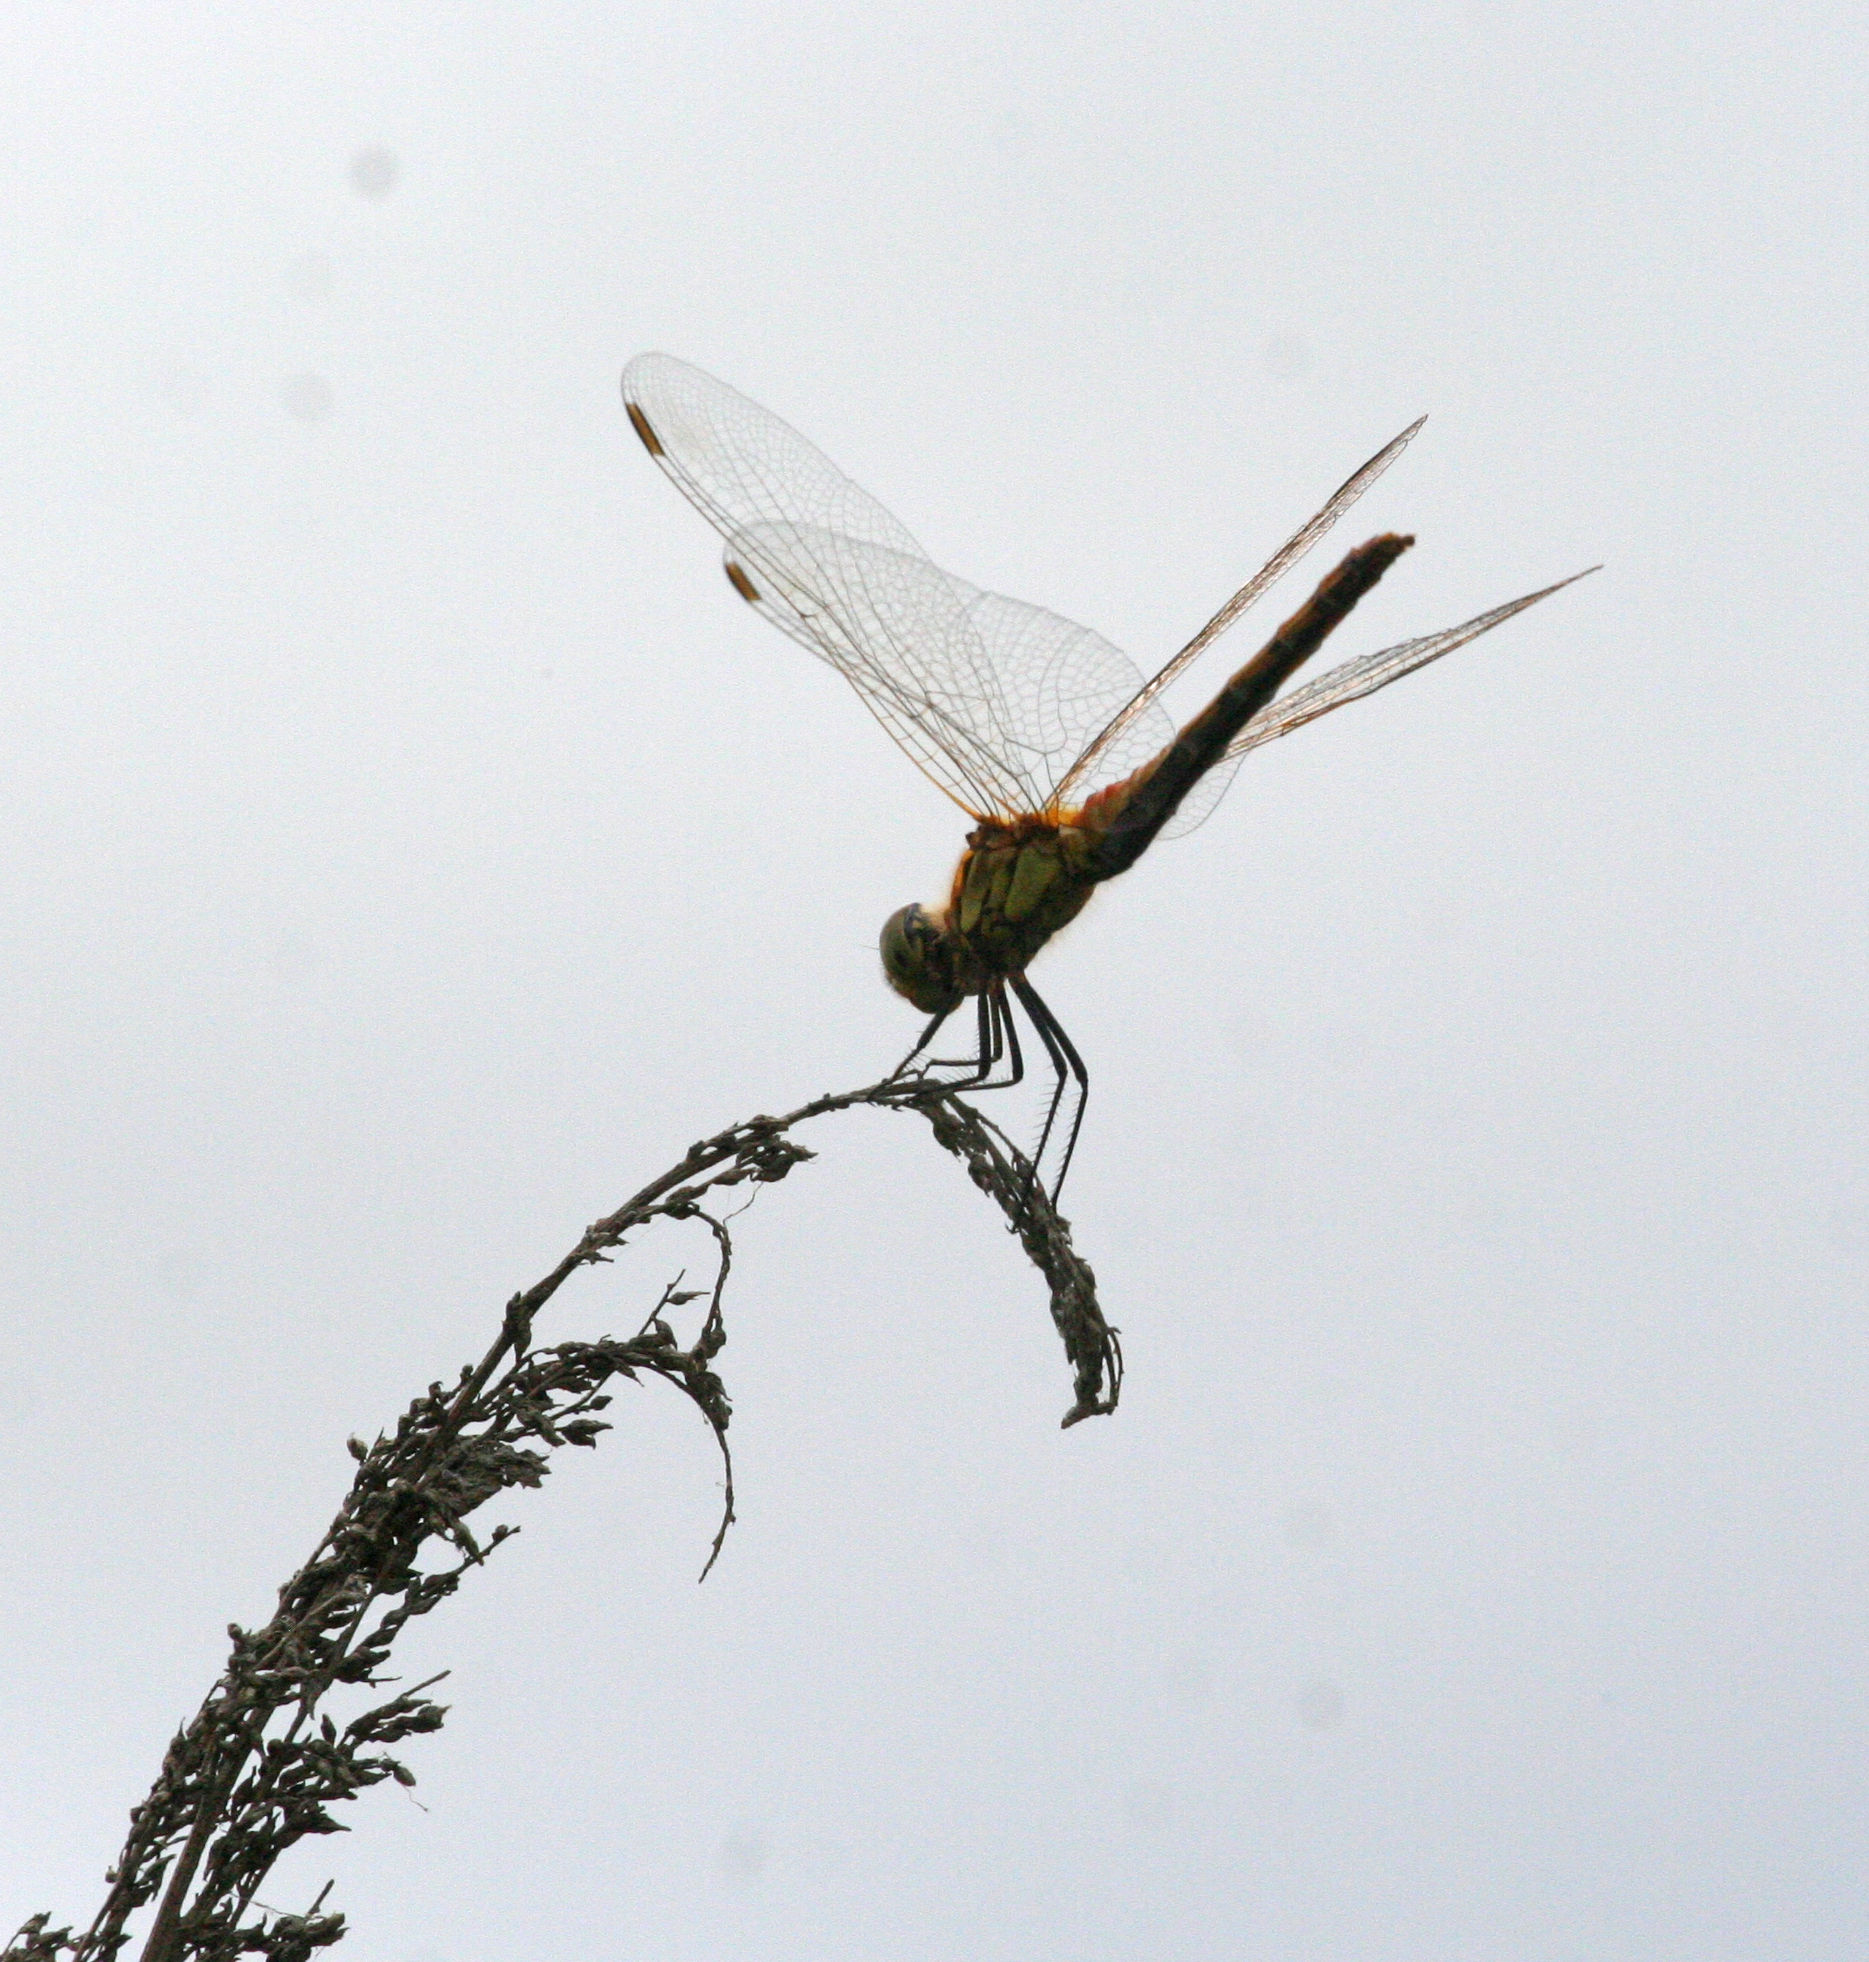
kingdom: Animalia
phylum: Arthropoda
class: Insecta
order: Odonata
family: Libellulidae
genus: Sympetrum
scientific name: Sympetrum depressiusculum
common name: Spotted darter
